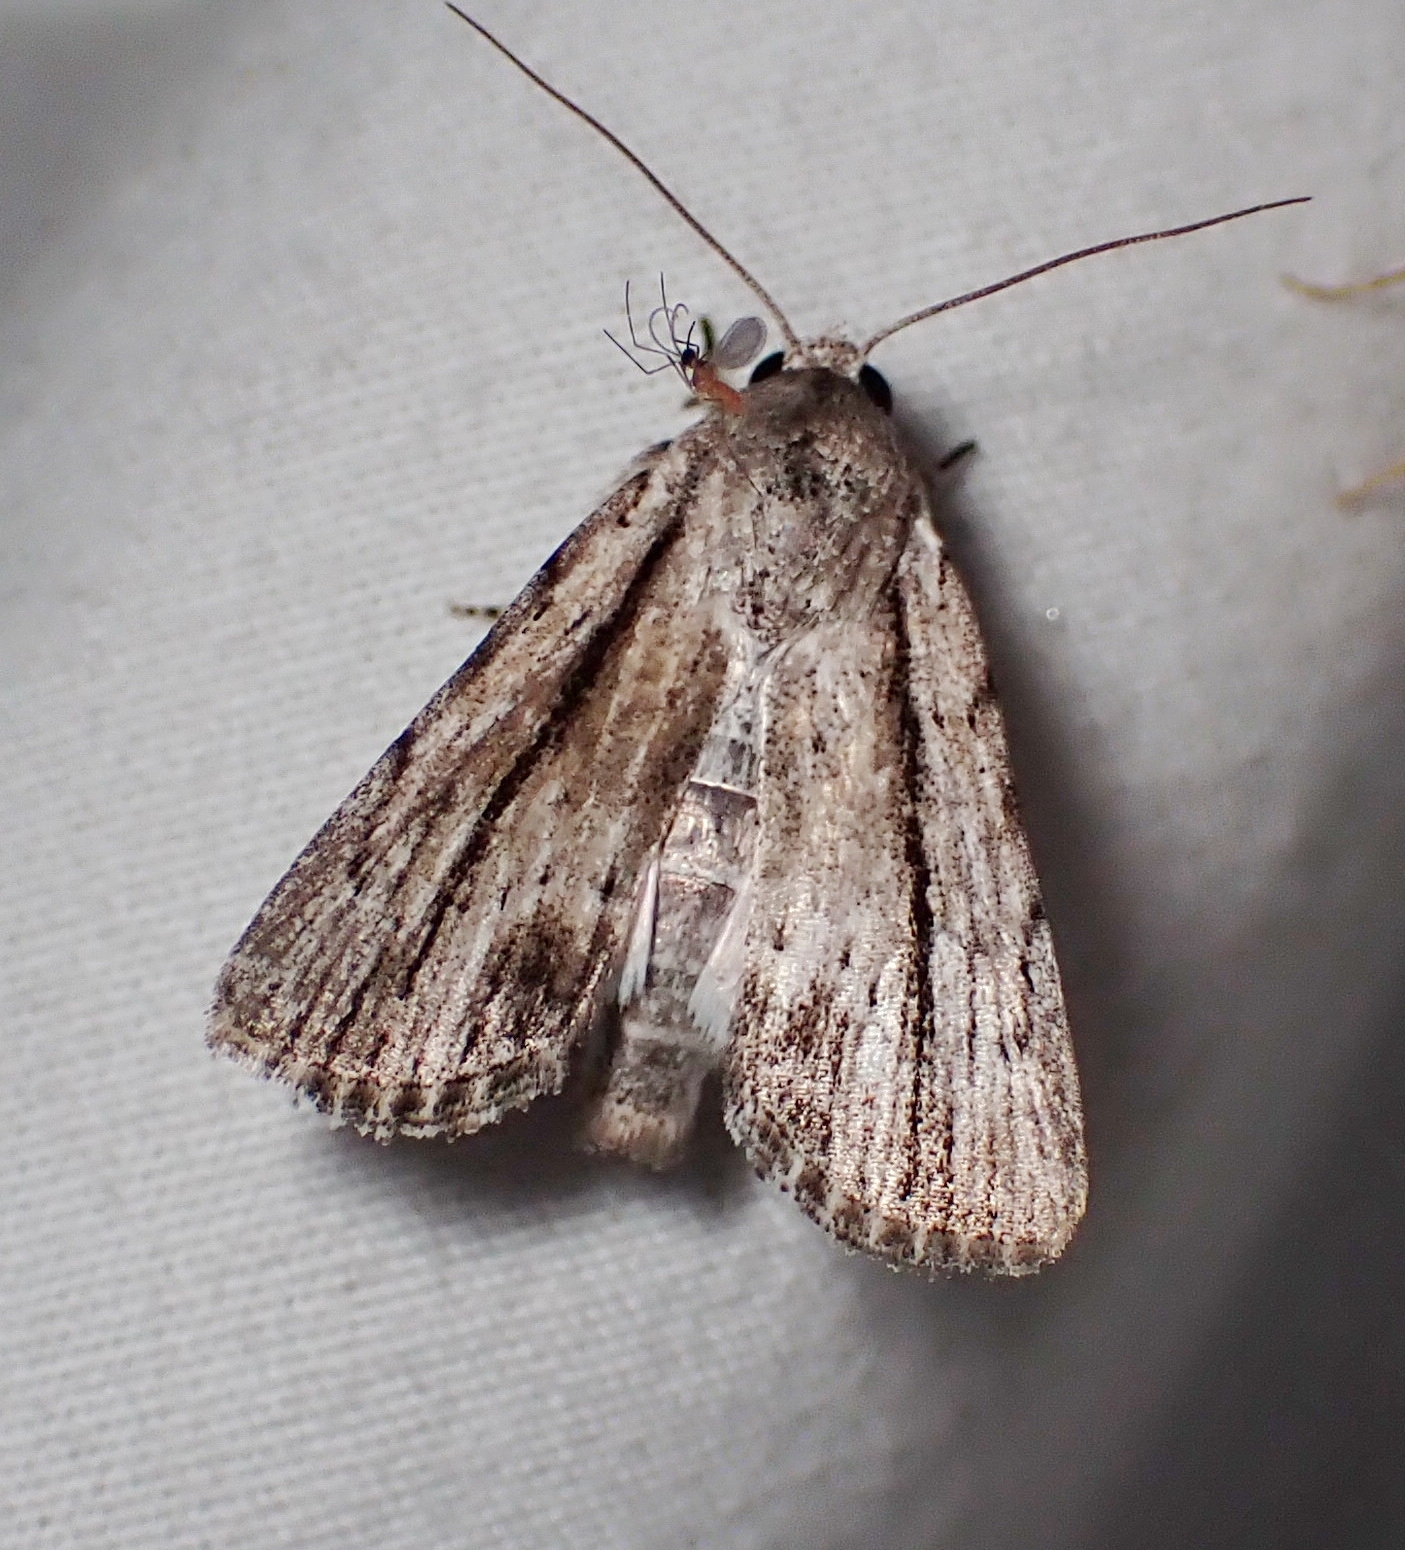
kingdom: Animalia
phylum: Arthropoda
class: Insecta
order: Lepidoptera
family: Noctuidae
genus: Catabenoides
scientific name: Catabenoides terminellus
